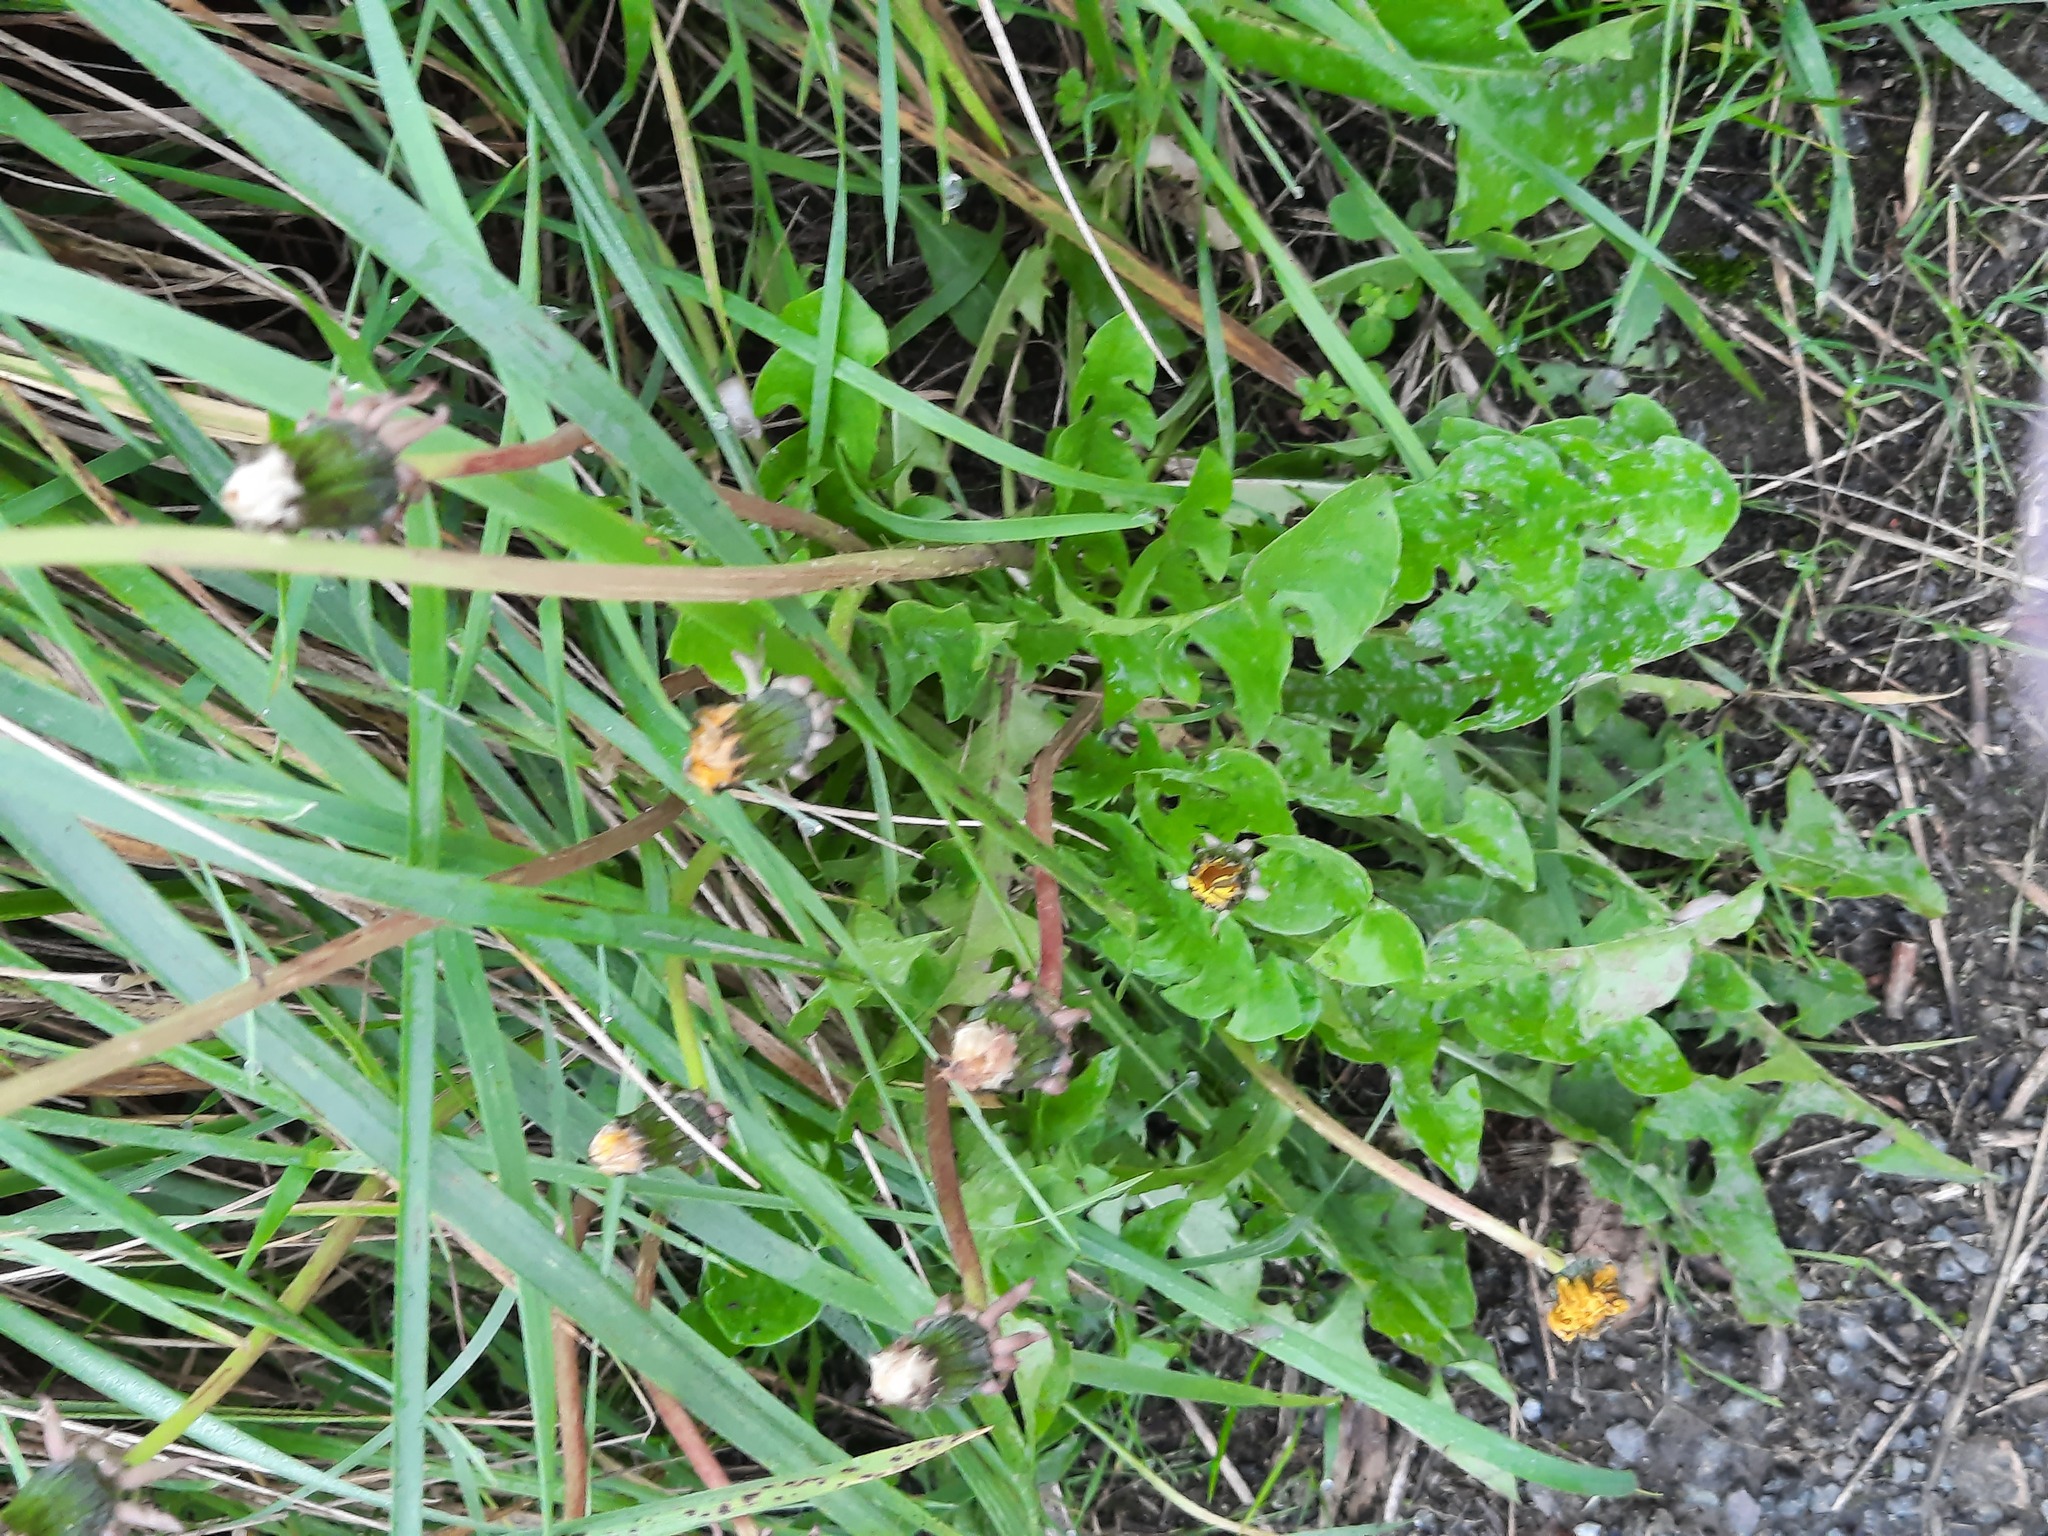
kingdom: Plantae
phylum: Tracheophyta
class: Magnoliopsida
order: Asterales
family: Asteraceae
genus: Taraxacum
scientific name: Taraxacum officinale
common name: Common dandelion
